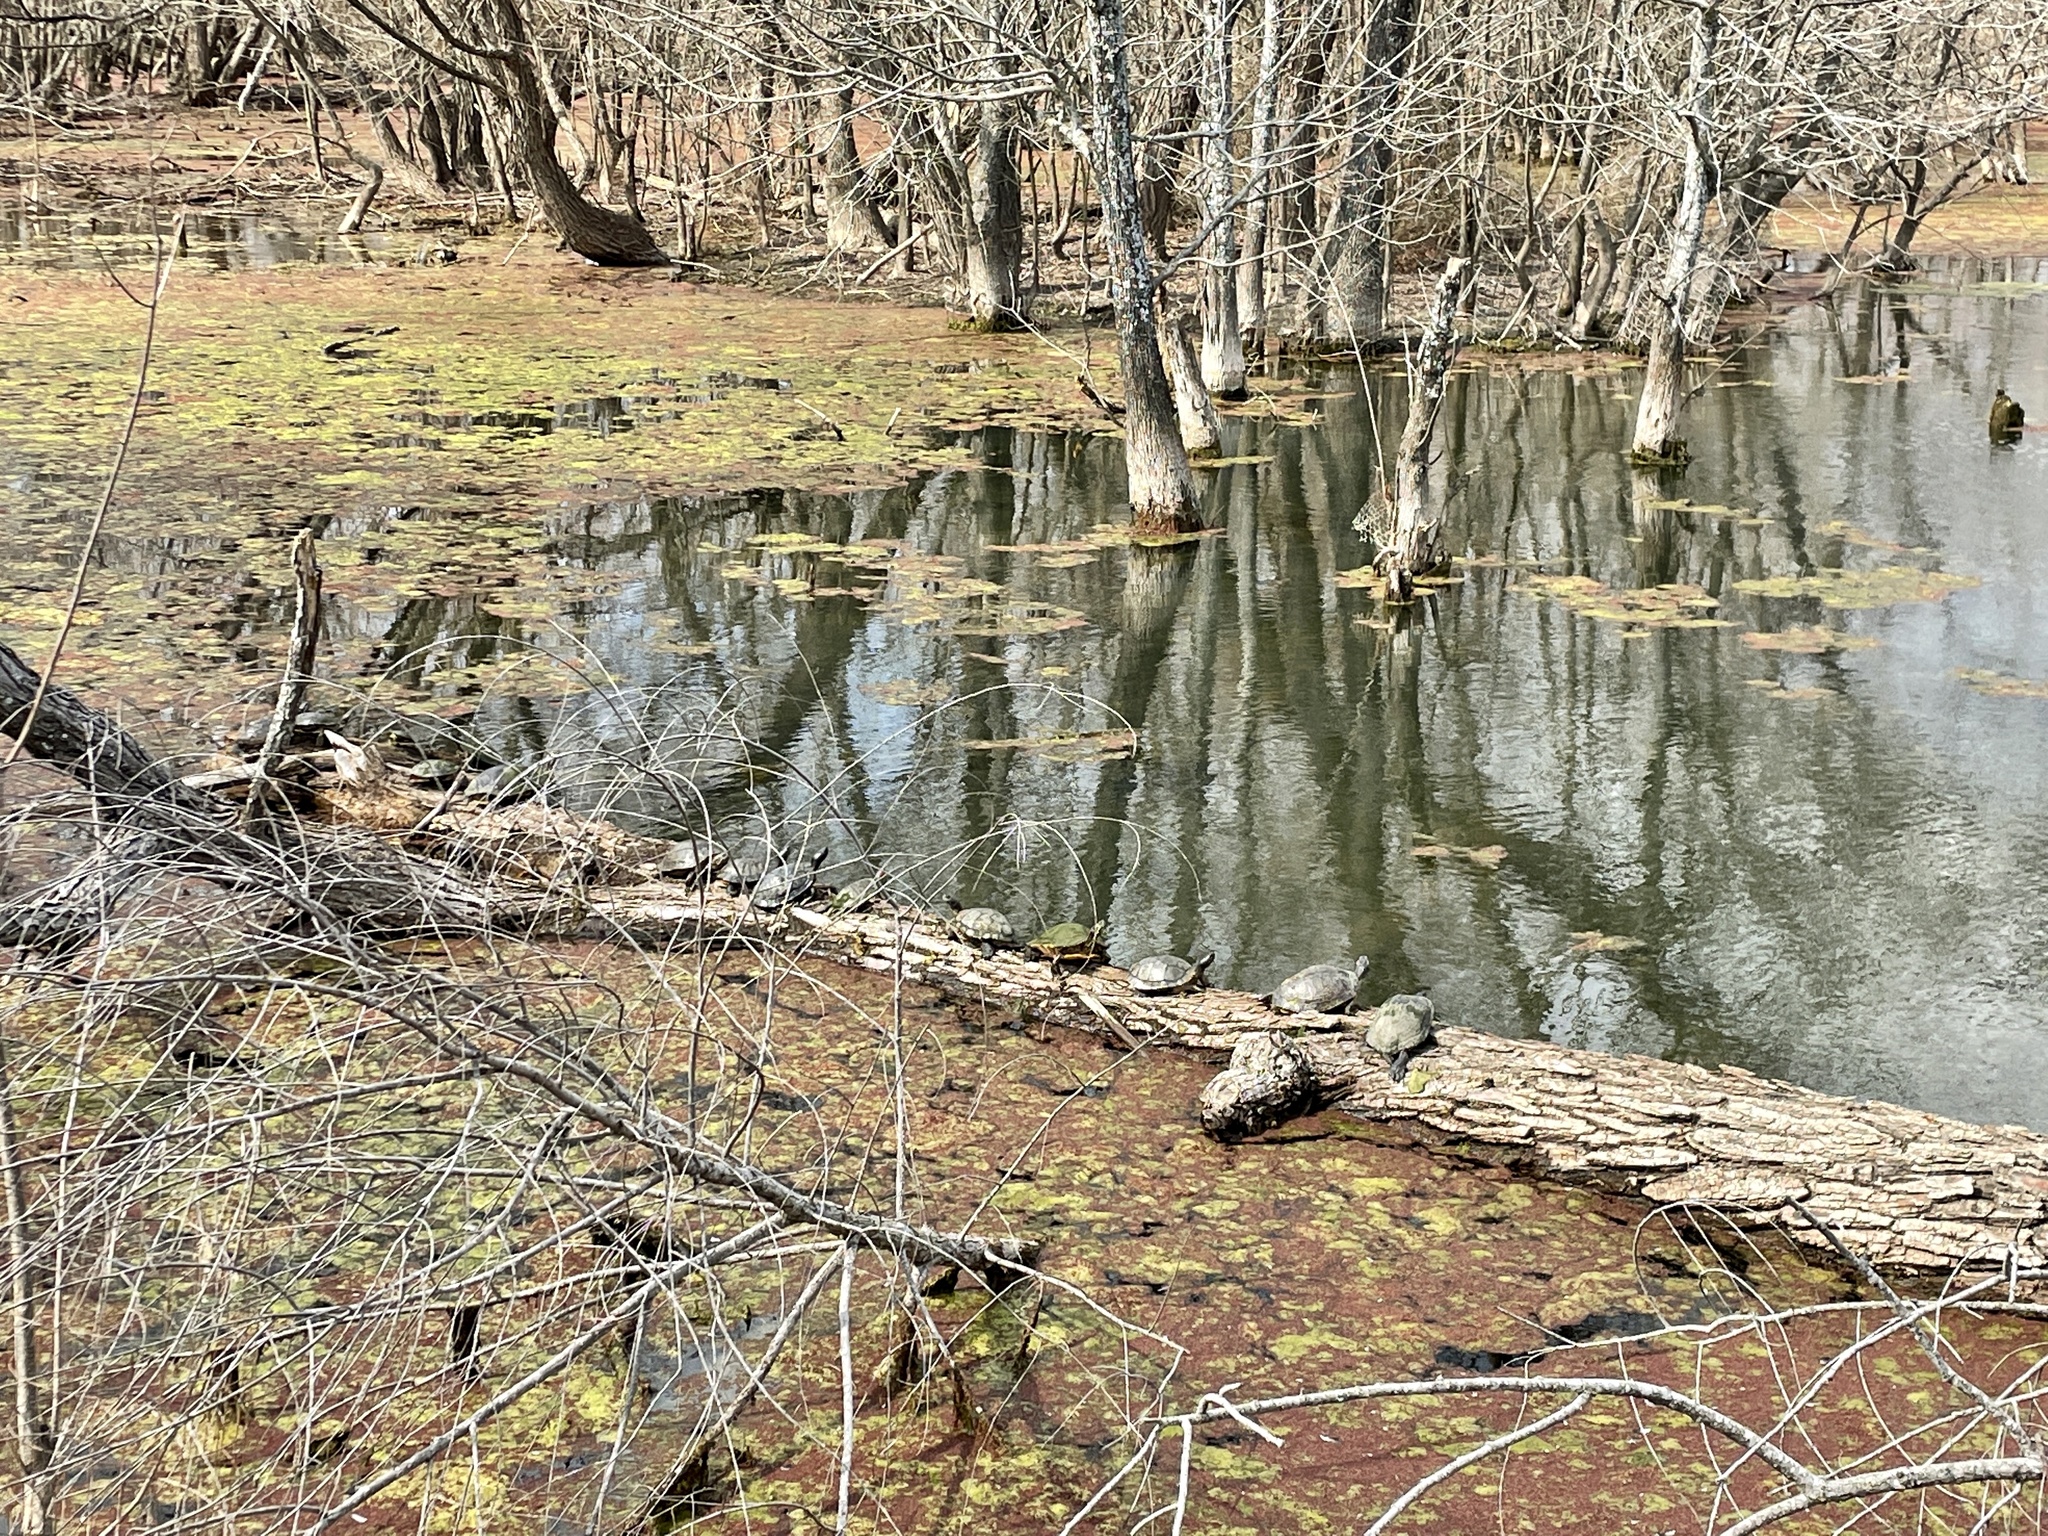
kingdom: Animalia
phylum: Chordata
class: Testudines
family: Emydidae
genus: Trachemys
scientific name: Trachemys scripta
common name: Slider
